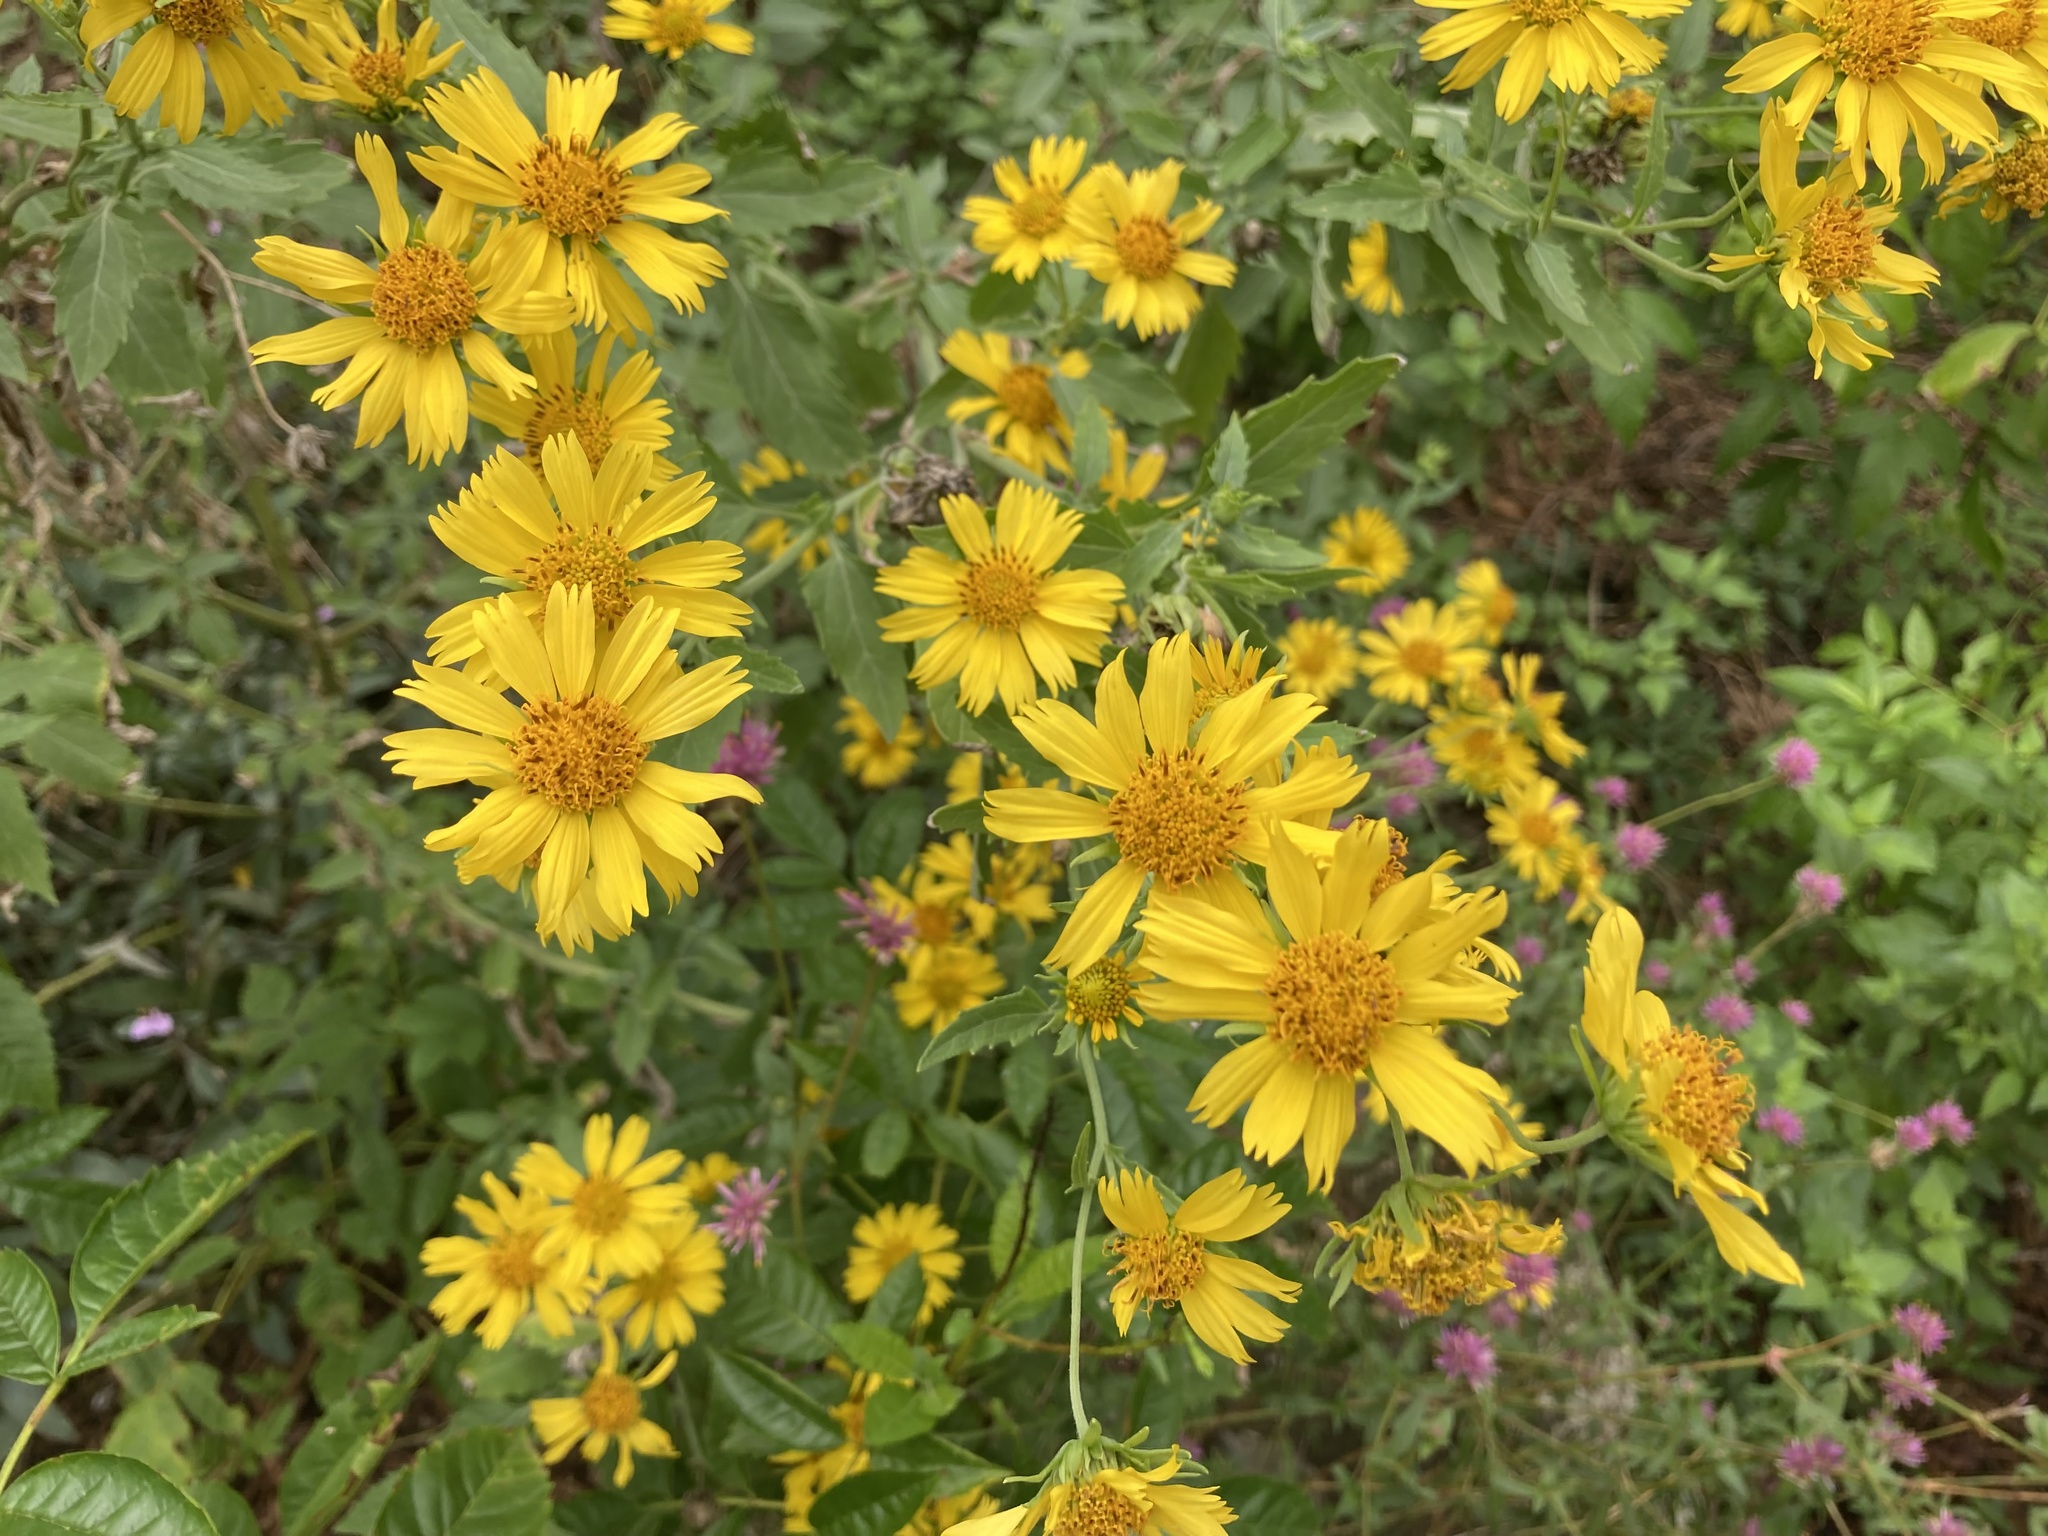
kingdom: Plantae
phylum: Tracheophyta
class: Magnoliopsida
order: Asterales
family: Asteraceae
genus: Verbesina
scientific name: Verbesina encelioides
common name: Golden crownbeard
